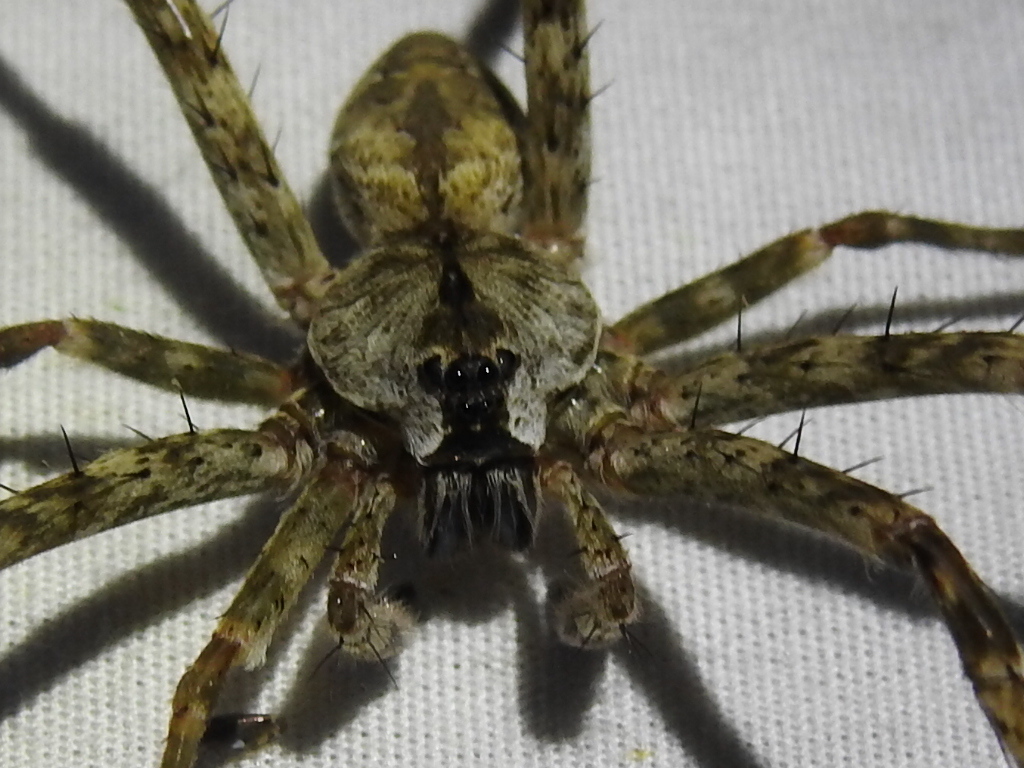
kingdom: Animalia
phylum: Arthropoda
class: Arachnida
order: Araneae
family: Pisauridae
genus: Dolomedes
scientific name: Dolomedes albineus
